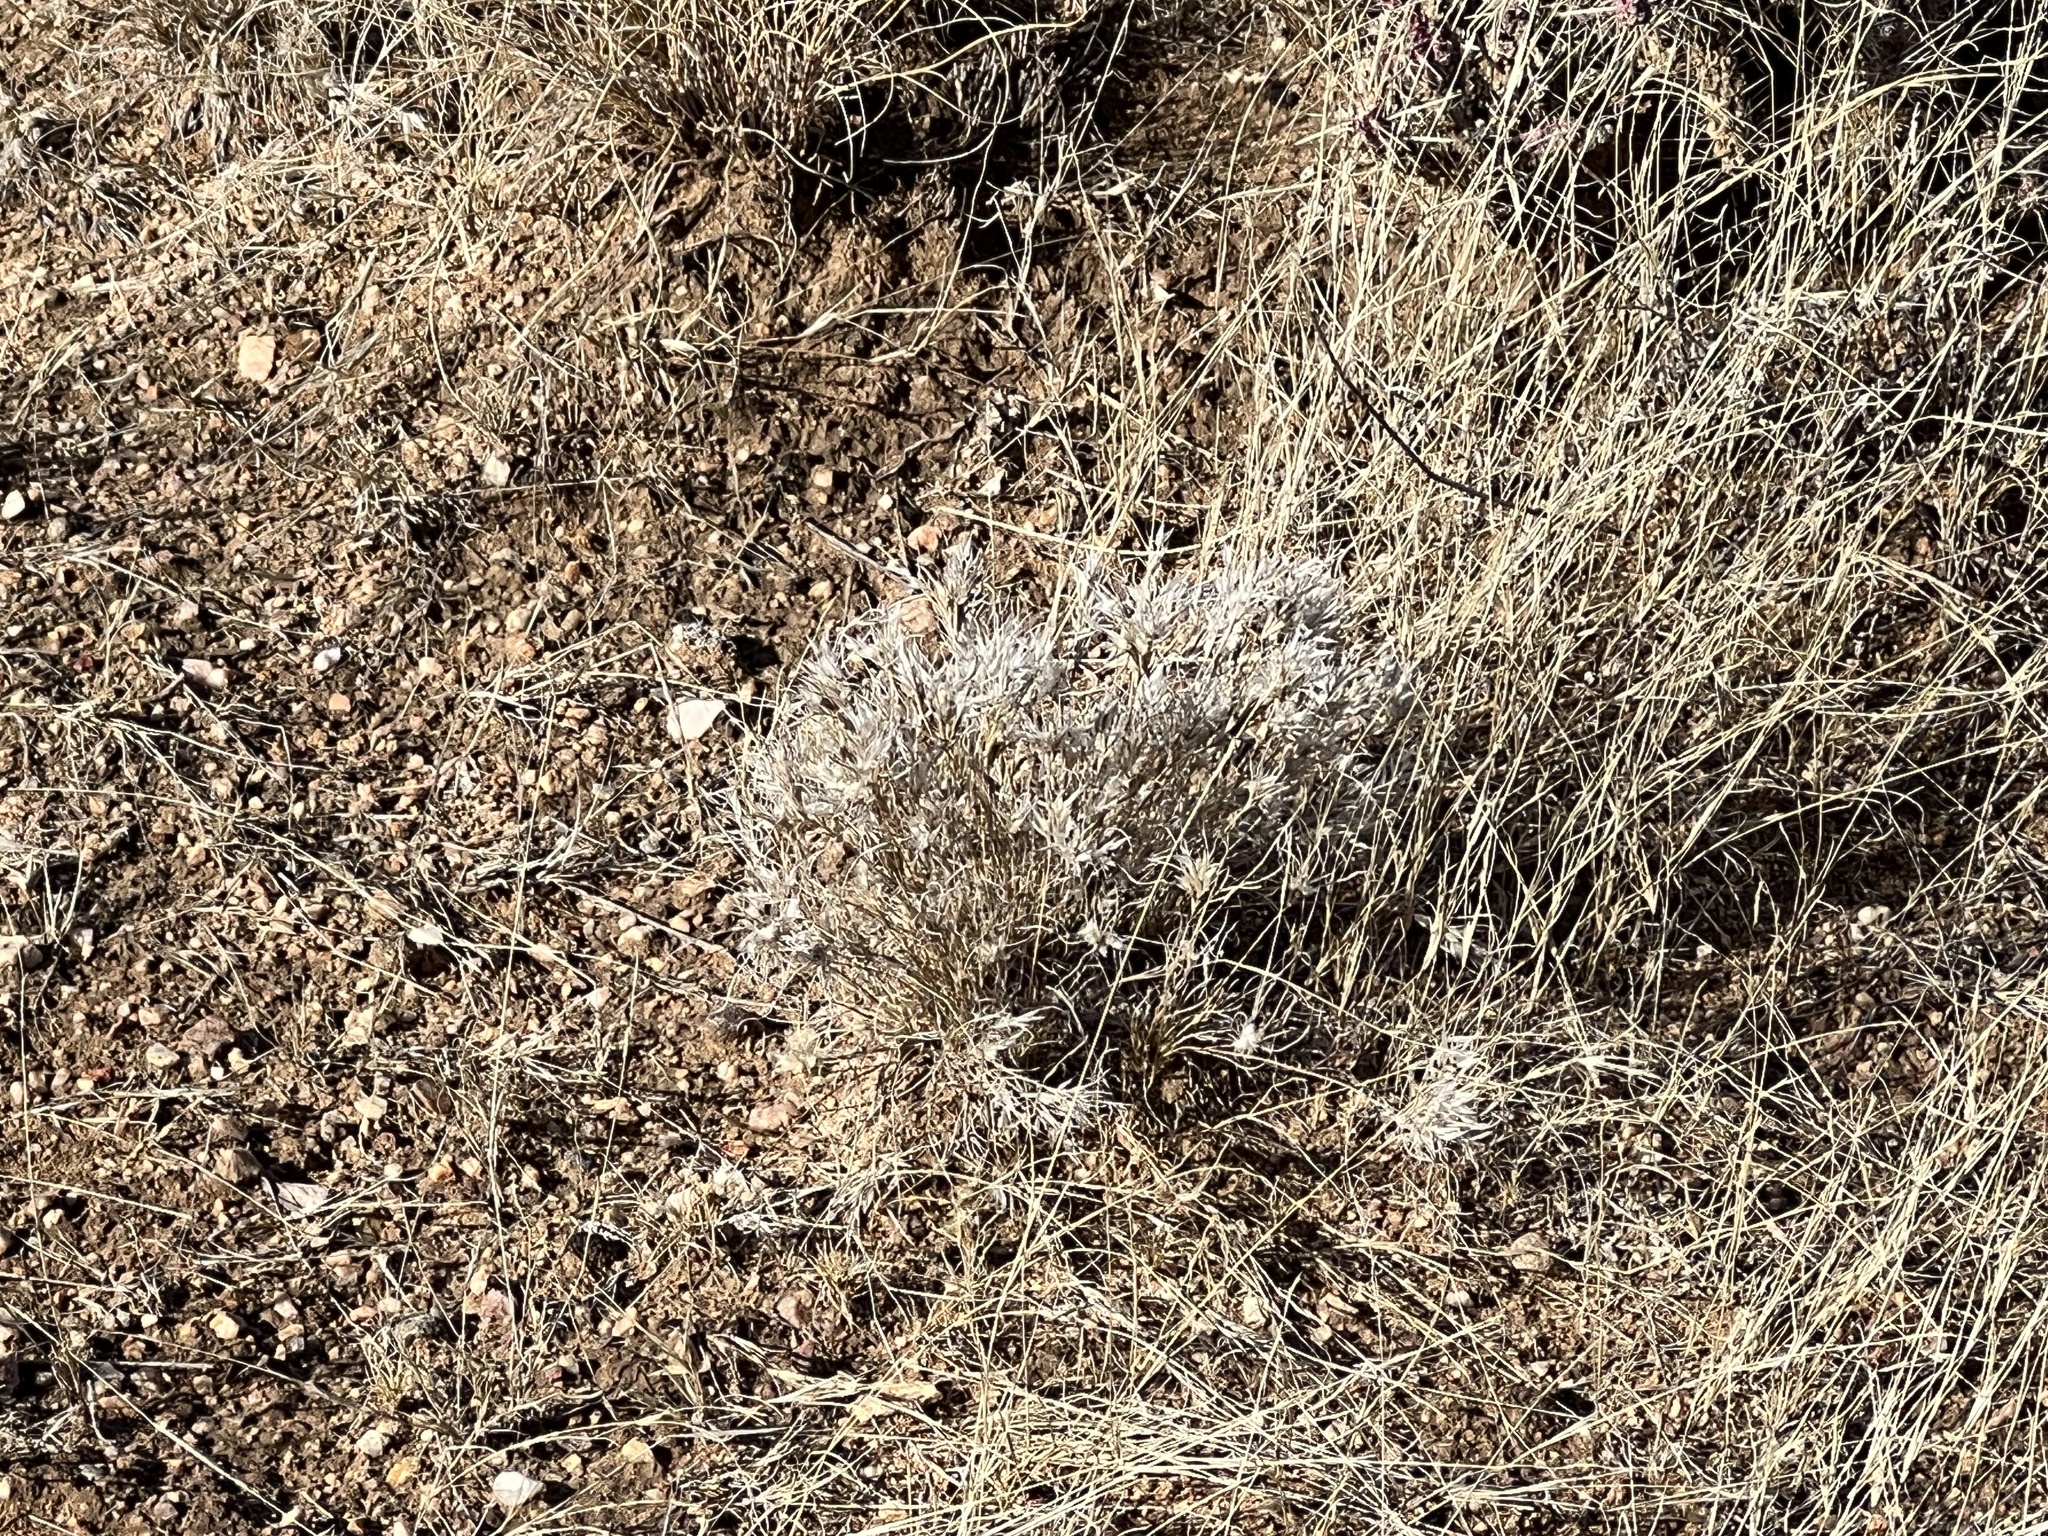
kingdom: Plantae
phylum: Tracheophyta
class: Liliopsida
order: Poales
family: Poaceae
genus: Dasyochloa
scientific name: Dasyochloa pulchella
